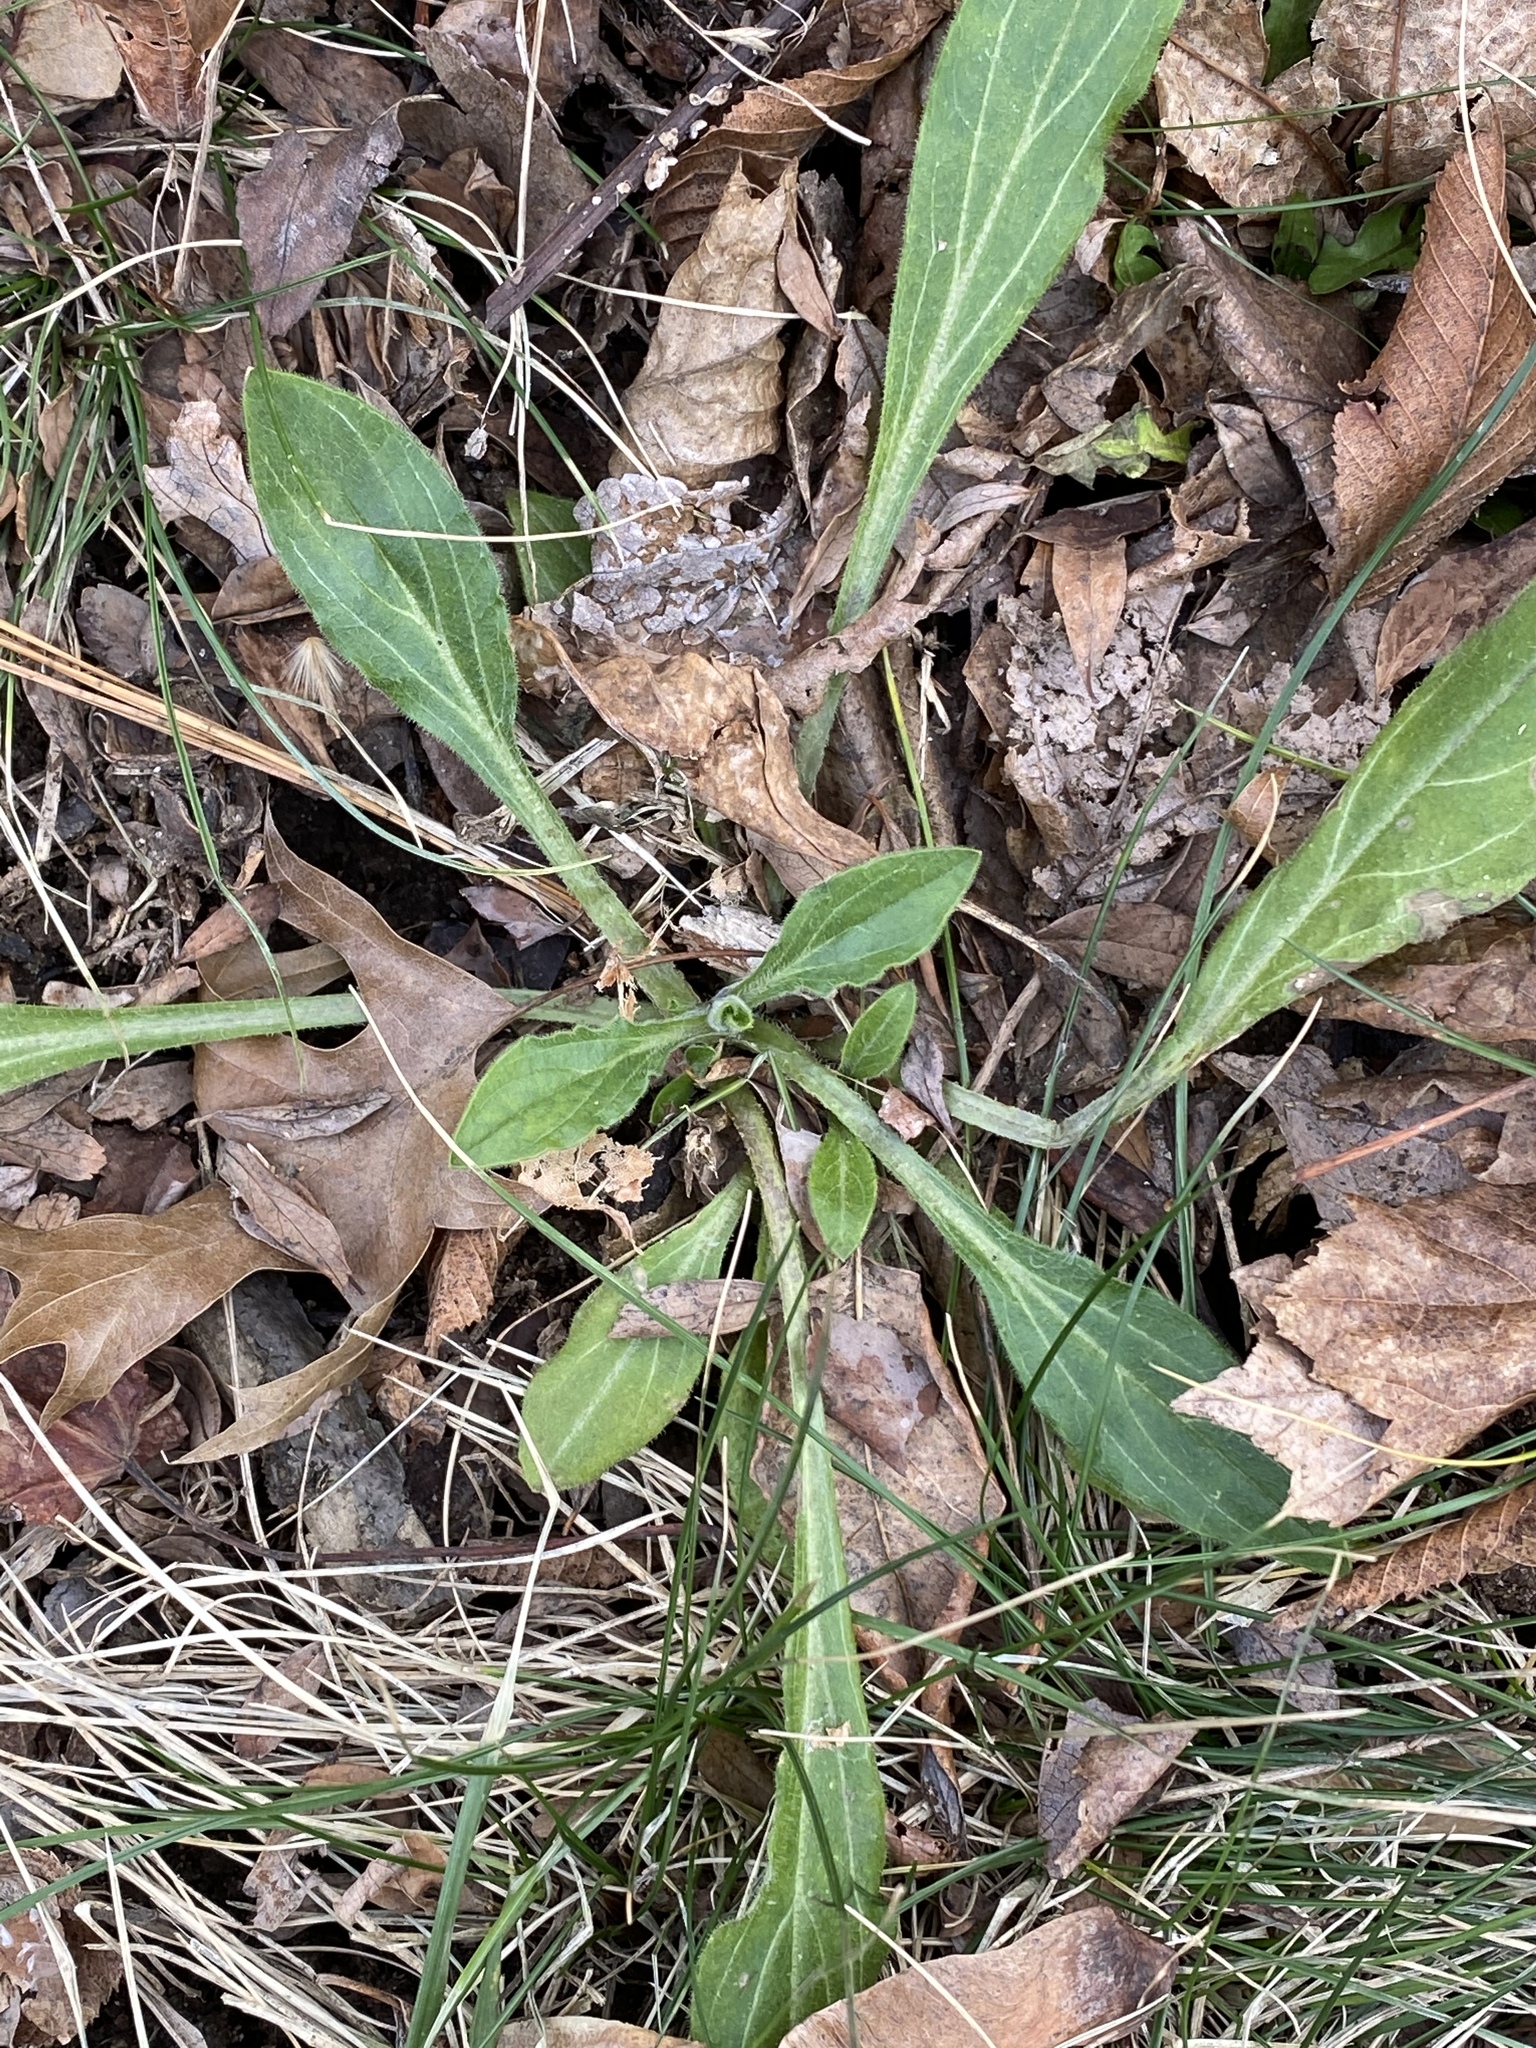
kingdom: Plantae
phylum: Tracheophyta
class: Magnoliopsida
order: Caryophyllales
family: Caryophyllaceae
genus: Silene
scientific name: Silene latifolia
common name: White campion
